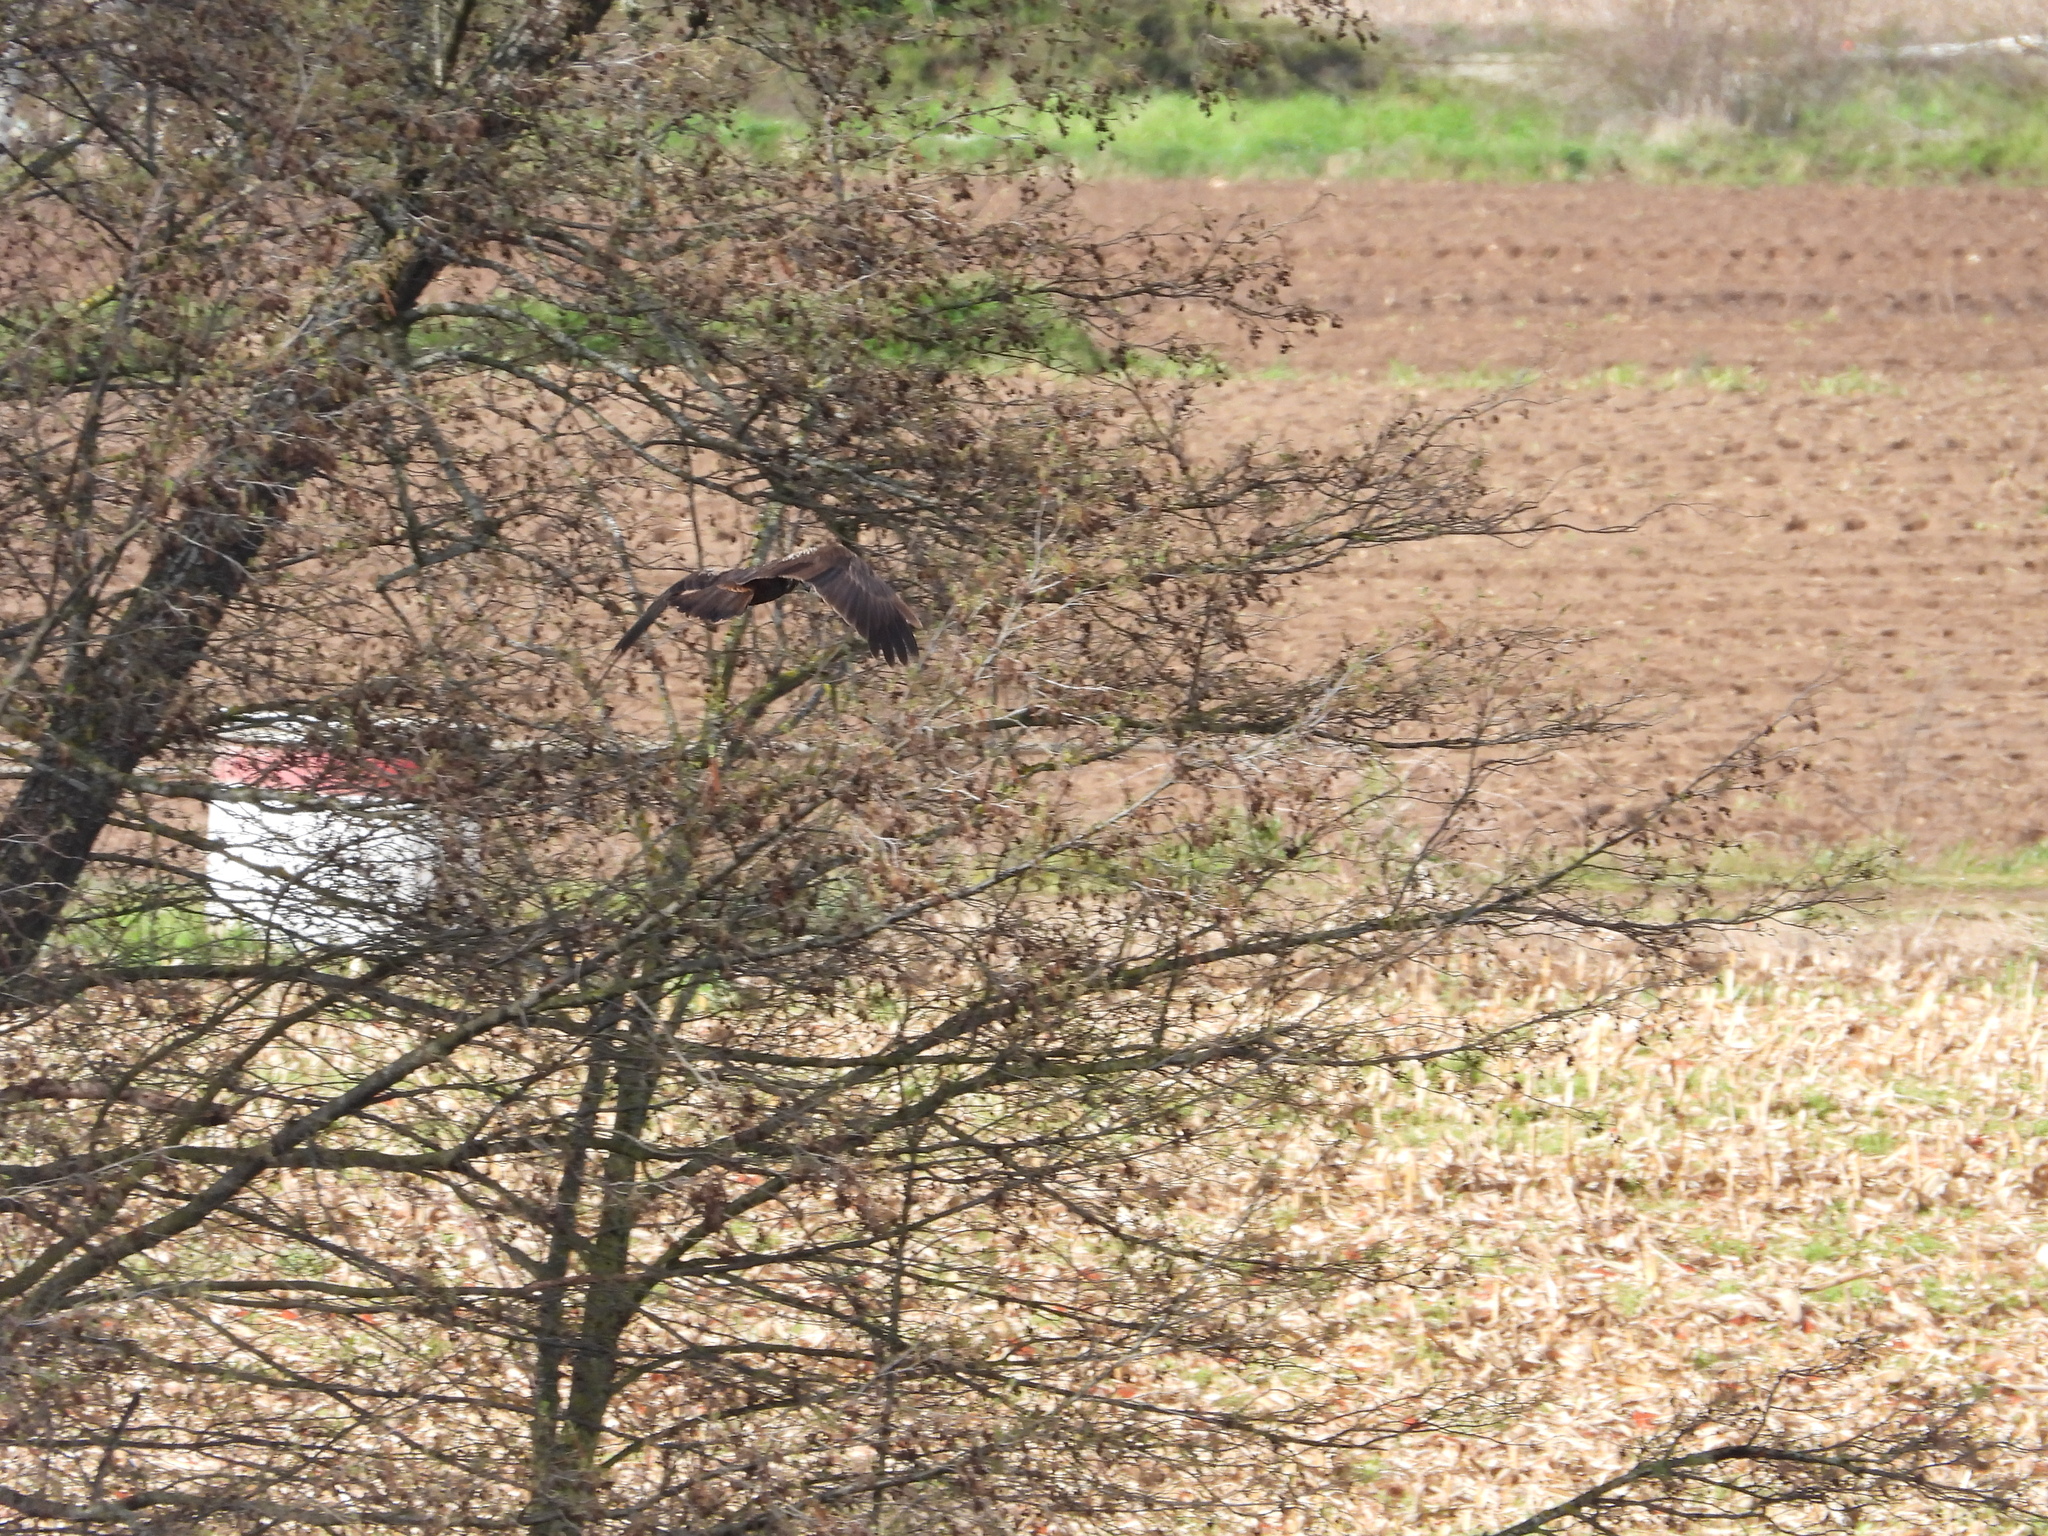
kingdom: Animalia
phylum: Chordata
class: Aves
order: Accipitriformes
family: Accipitridae
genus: Circus
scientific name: Circus aeruginosus
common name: Western marsh harrier
